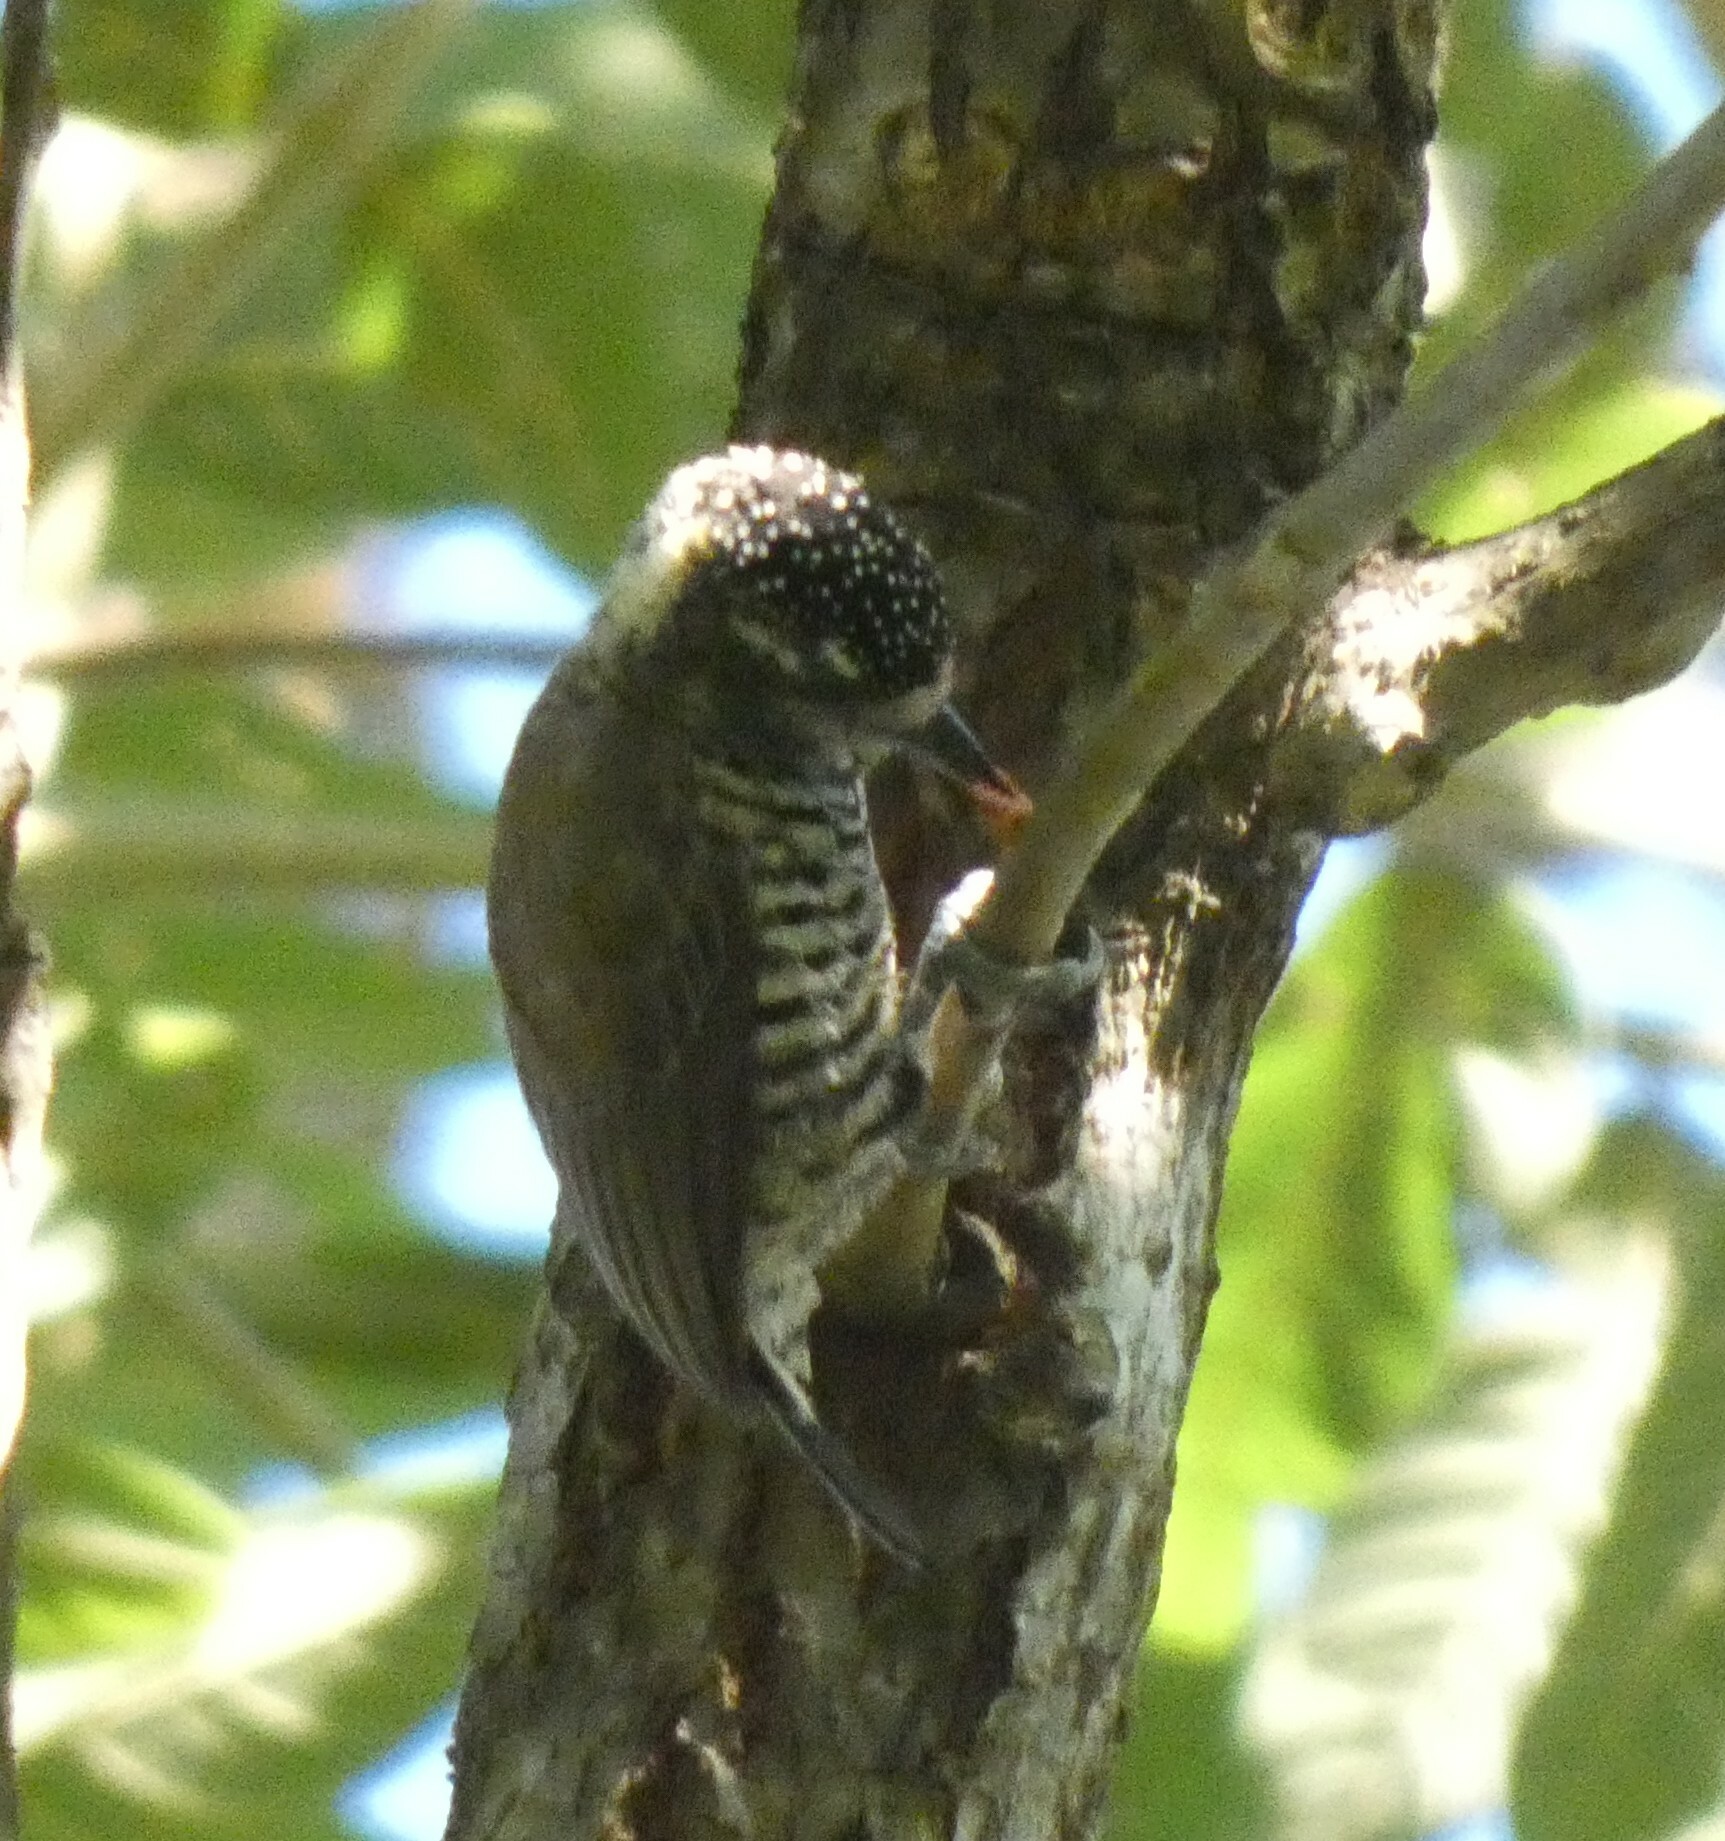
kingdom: Animalia
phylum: Chordata
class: Aves
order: Piciformes
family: Picidae
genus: Picumnus
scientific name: Picumnus cirratus
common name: White-barred piculet
